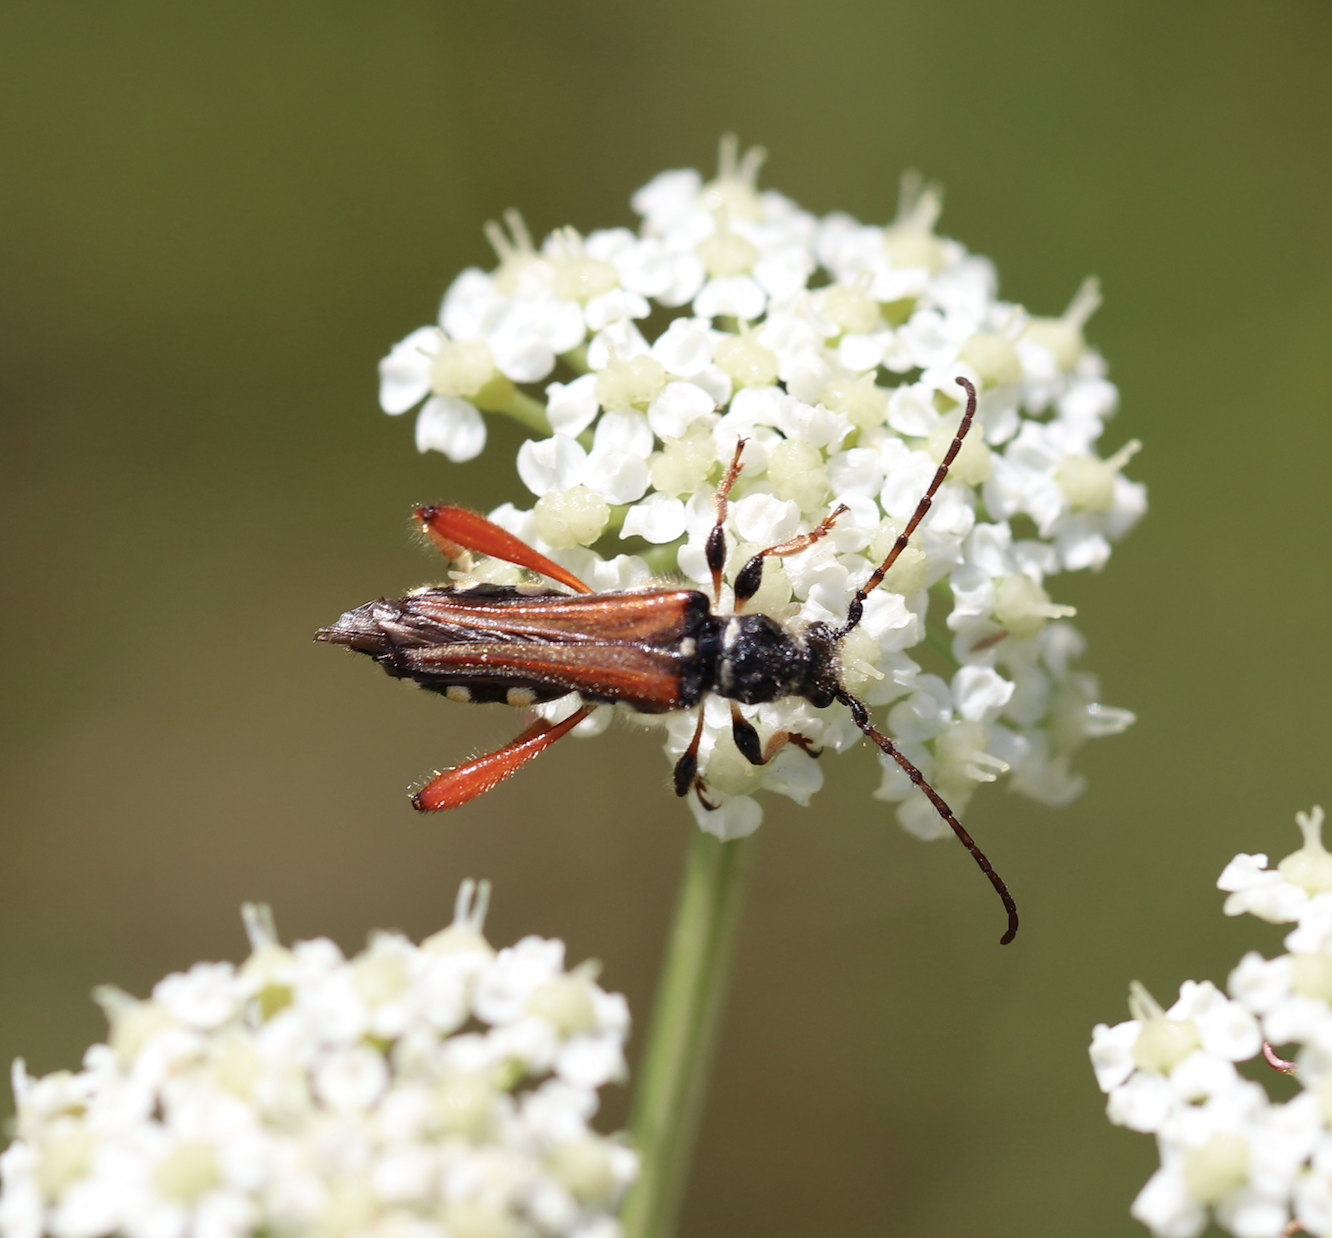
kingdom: Animalia
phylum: Arthropoda
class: Insecta
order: Coleoptera
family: Cerambycidae
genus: Stenopterus
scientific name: Stenopterus rufus
